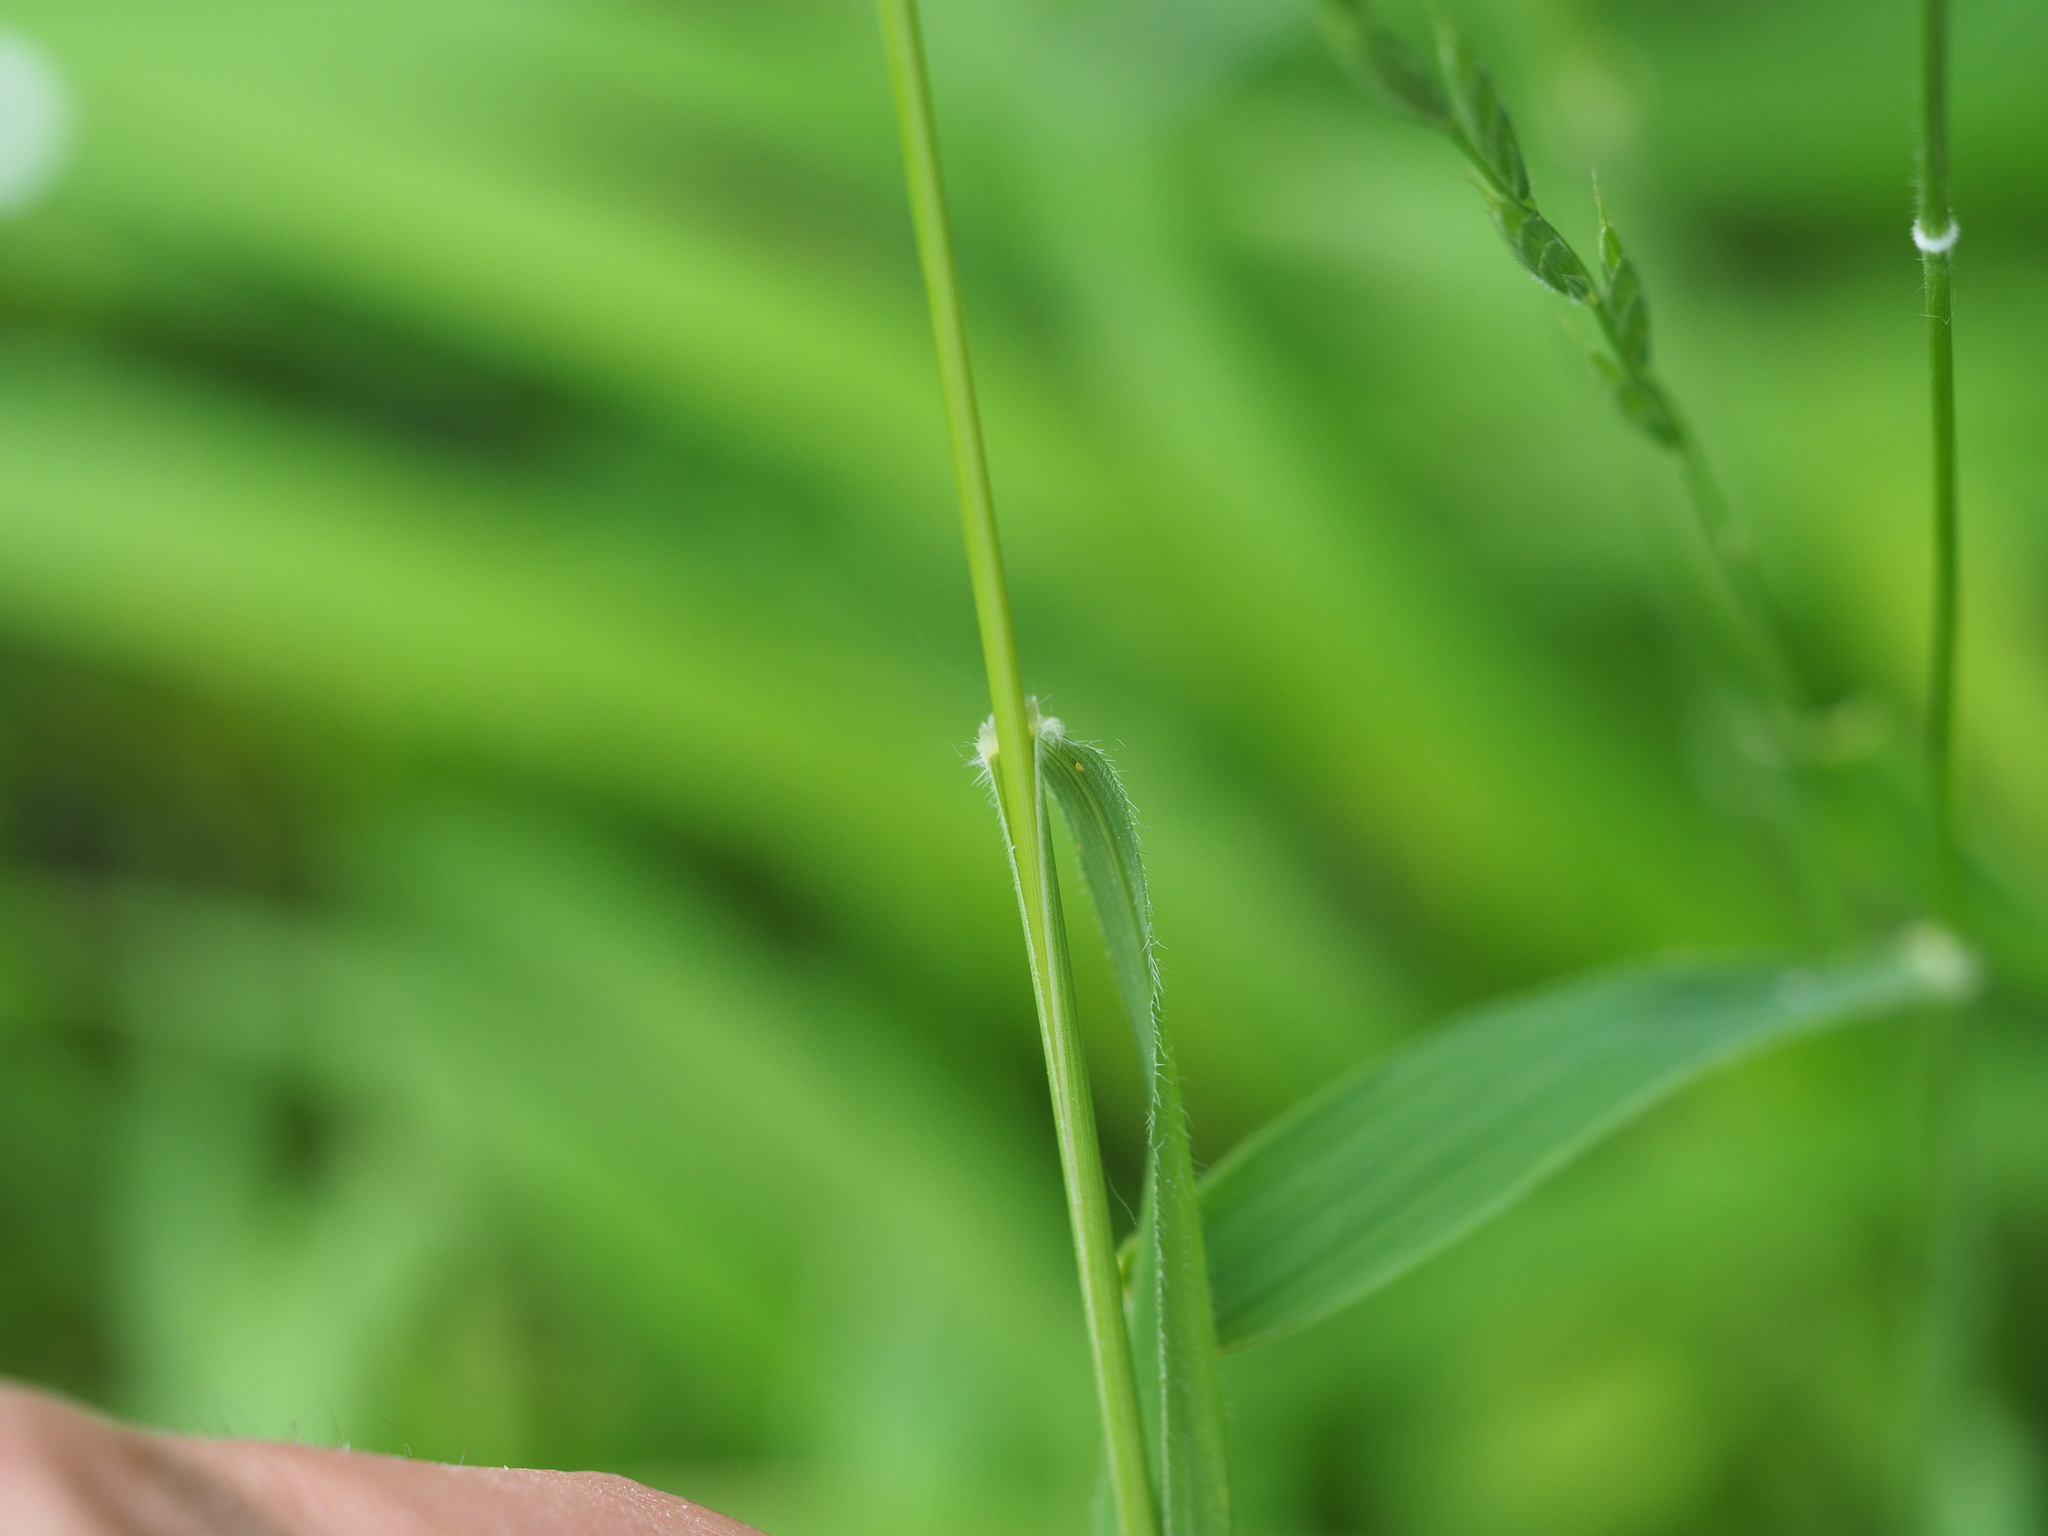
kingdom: Plantae
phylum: Tracheophyta
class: Liliopsida
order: Poales
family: Poaceae
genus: Brachypodium
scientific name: Brachypodium pinnatum
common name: Tor grass
